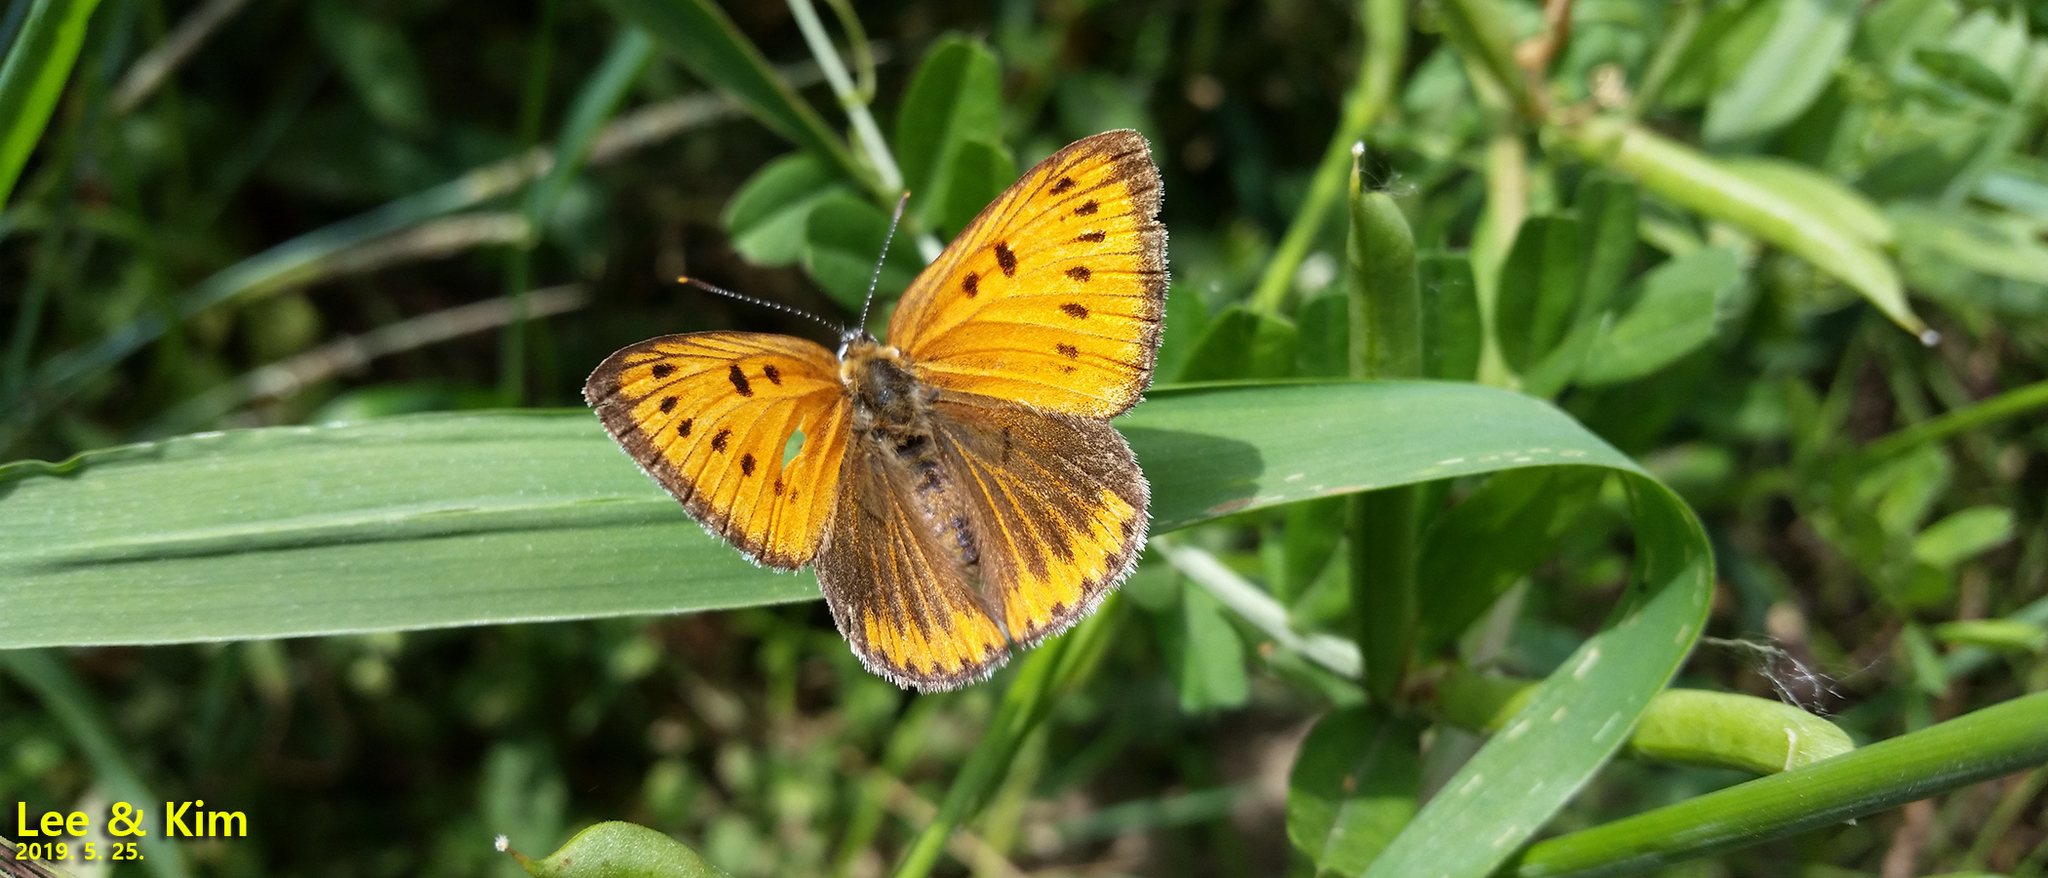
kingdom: Animalia
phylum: Arthropoda
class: Insecta
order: Lepidoptera
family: Lycaenidae
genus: Lycaena
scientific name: Lycaena dispar
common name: Large copper
